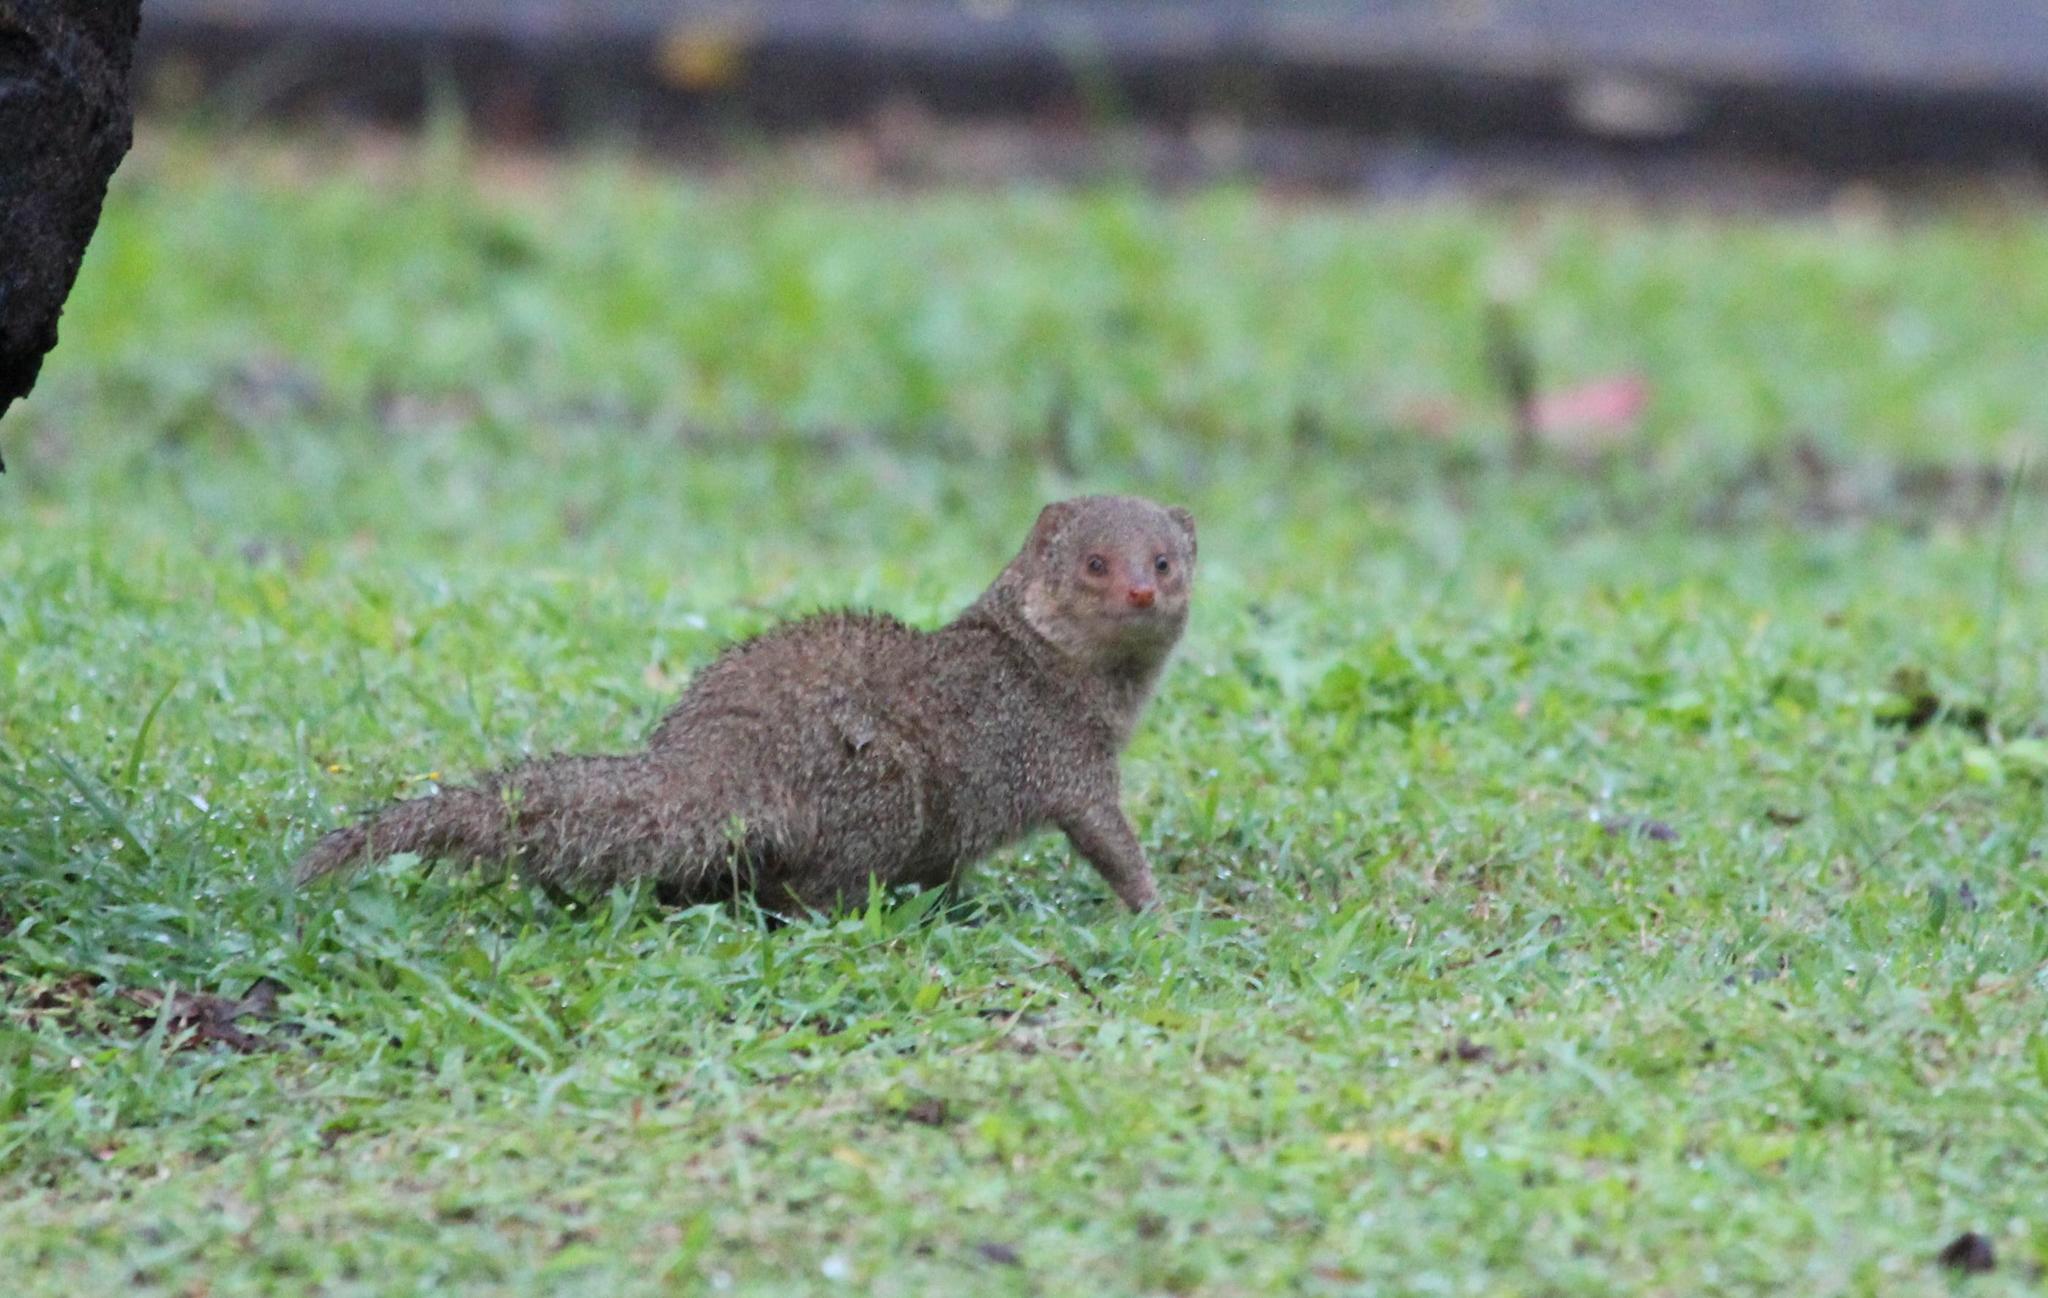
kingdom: Animalia
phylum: Chordata
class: Mammalia
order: Carnivora
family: Herpestidae
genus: Herpestes
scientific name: Herpestes javanicus
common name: Small asian mongoose
